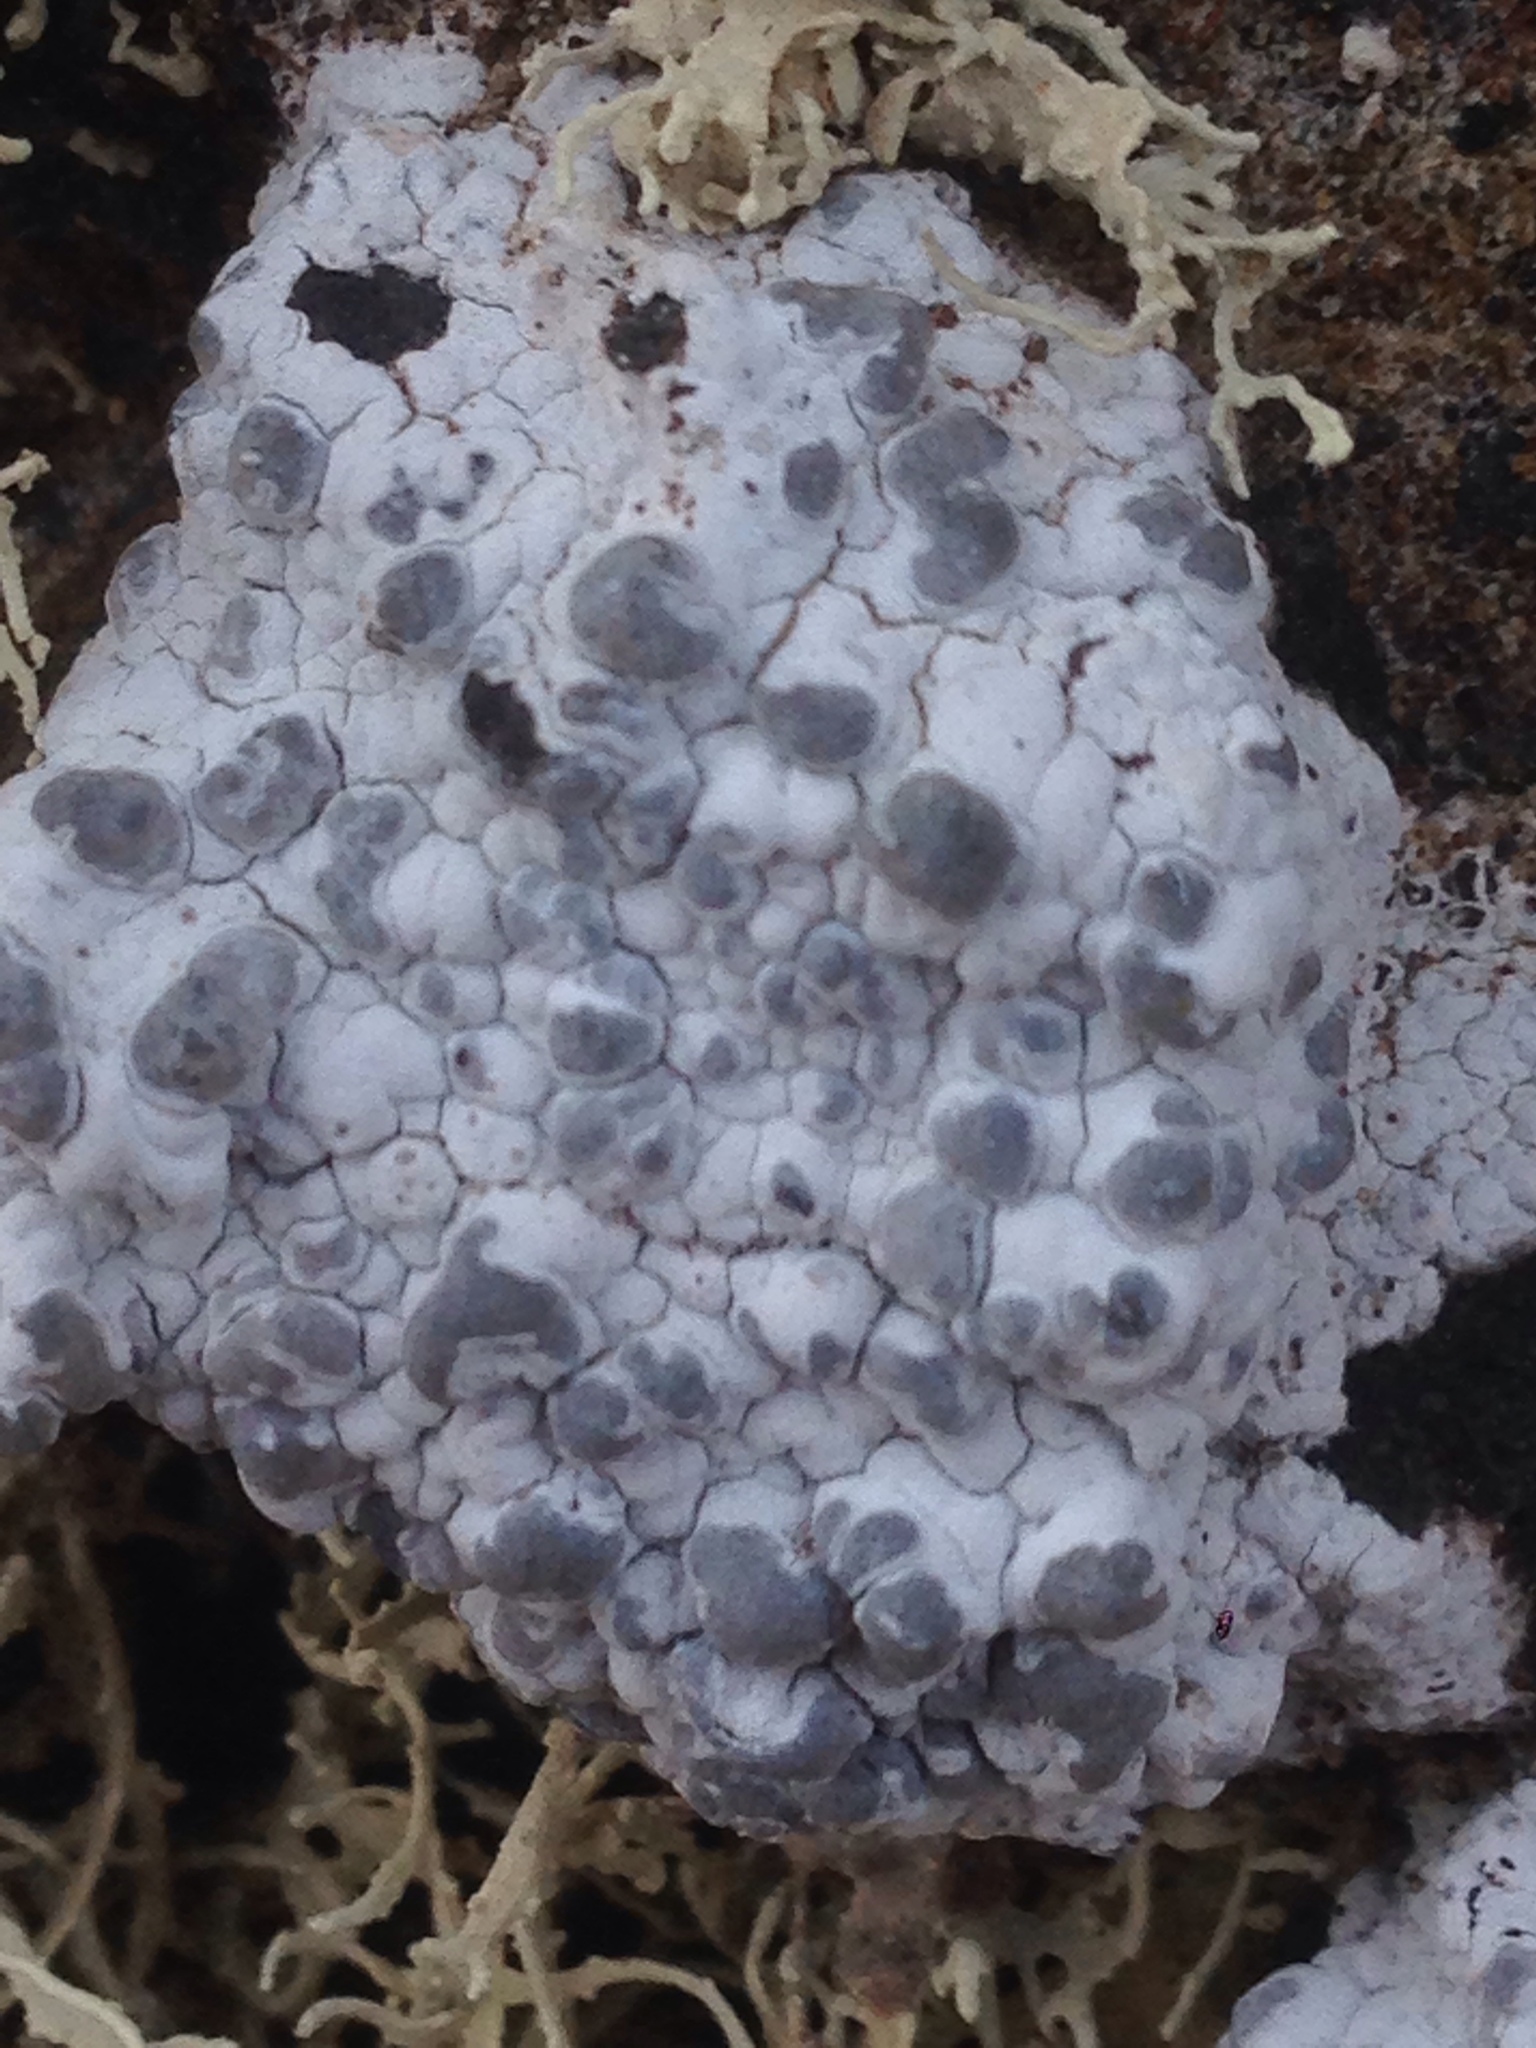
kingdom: Fungi
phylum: Ascomycota
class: Arthoniomycetes
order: Arthoniales
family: Lecanographaceae
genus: Lecanographa
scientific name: Lecanographa hypothallina
